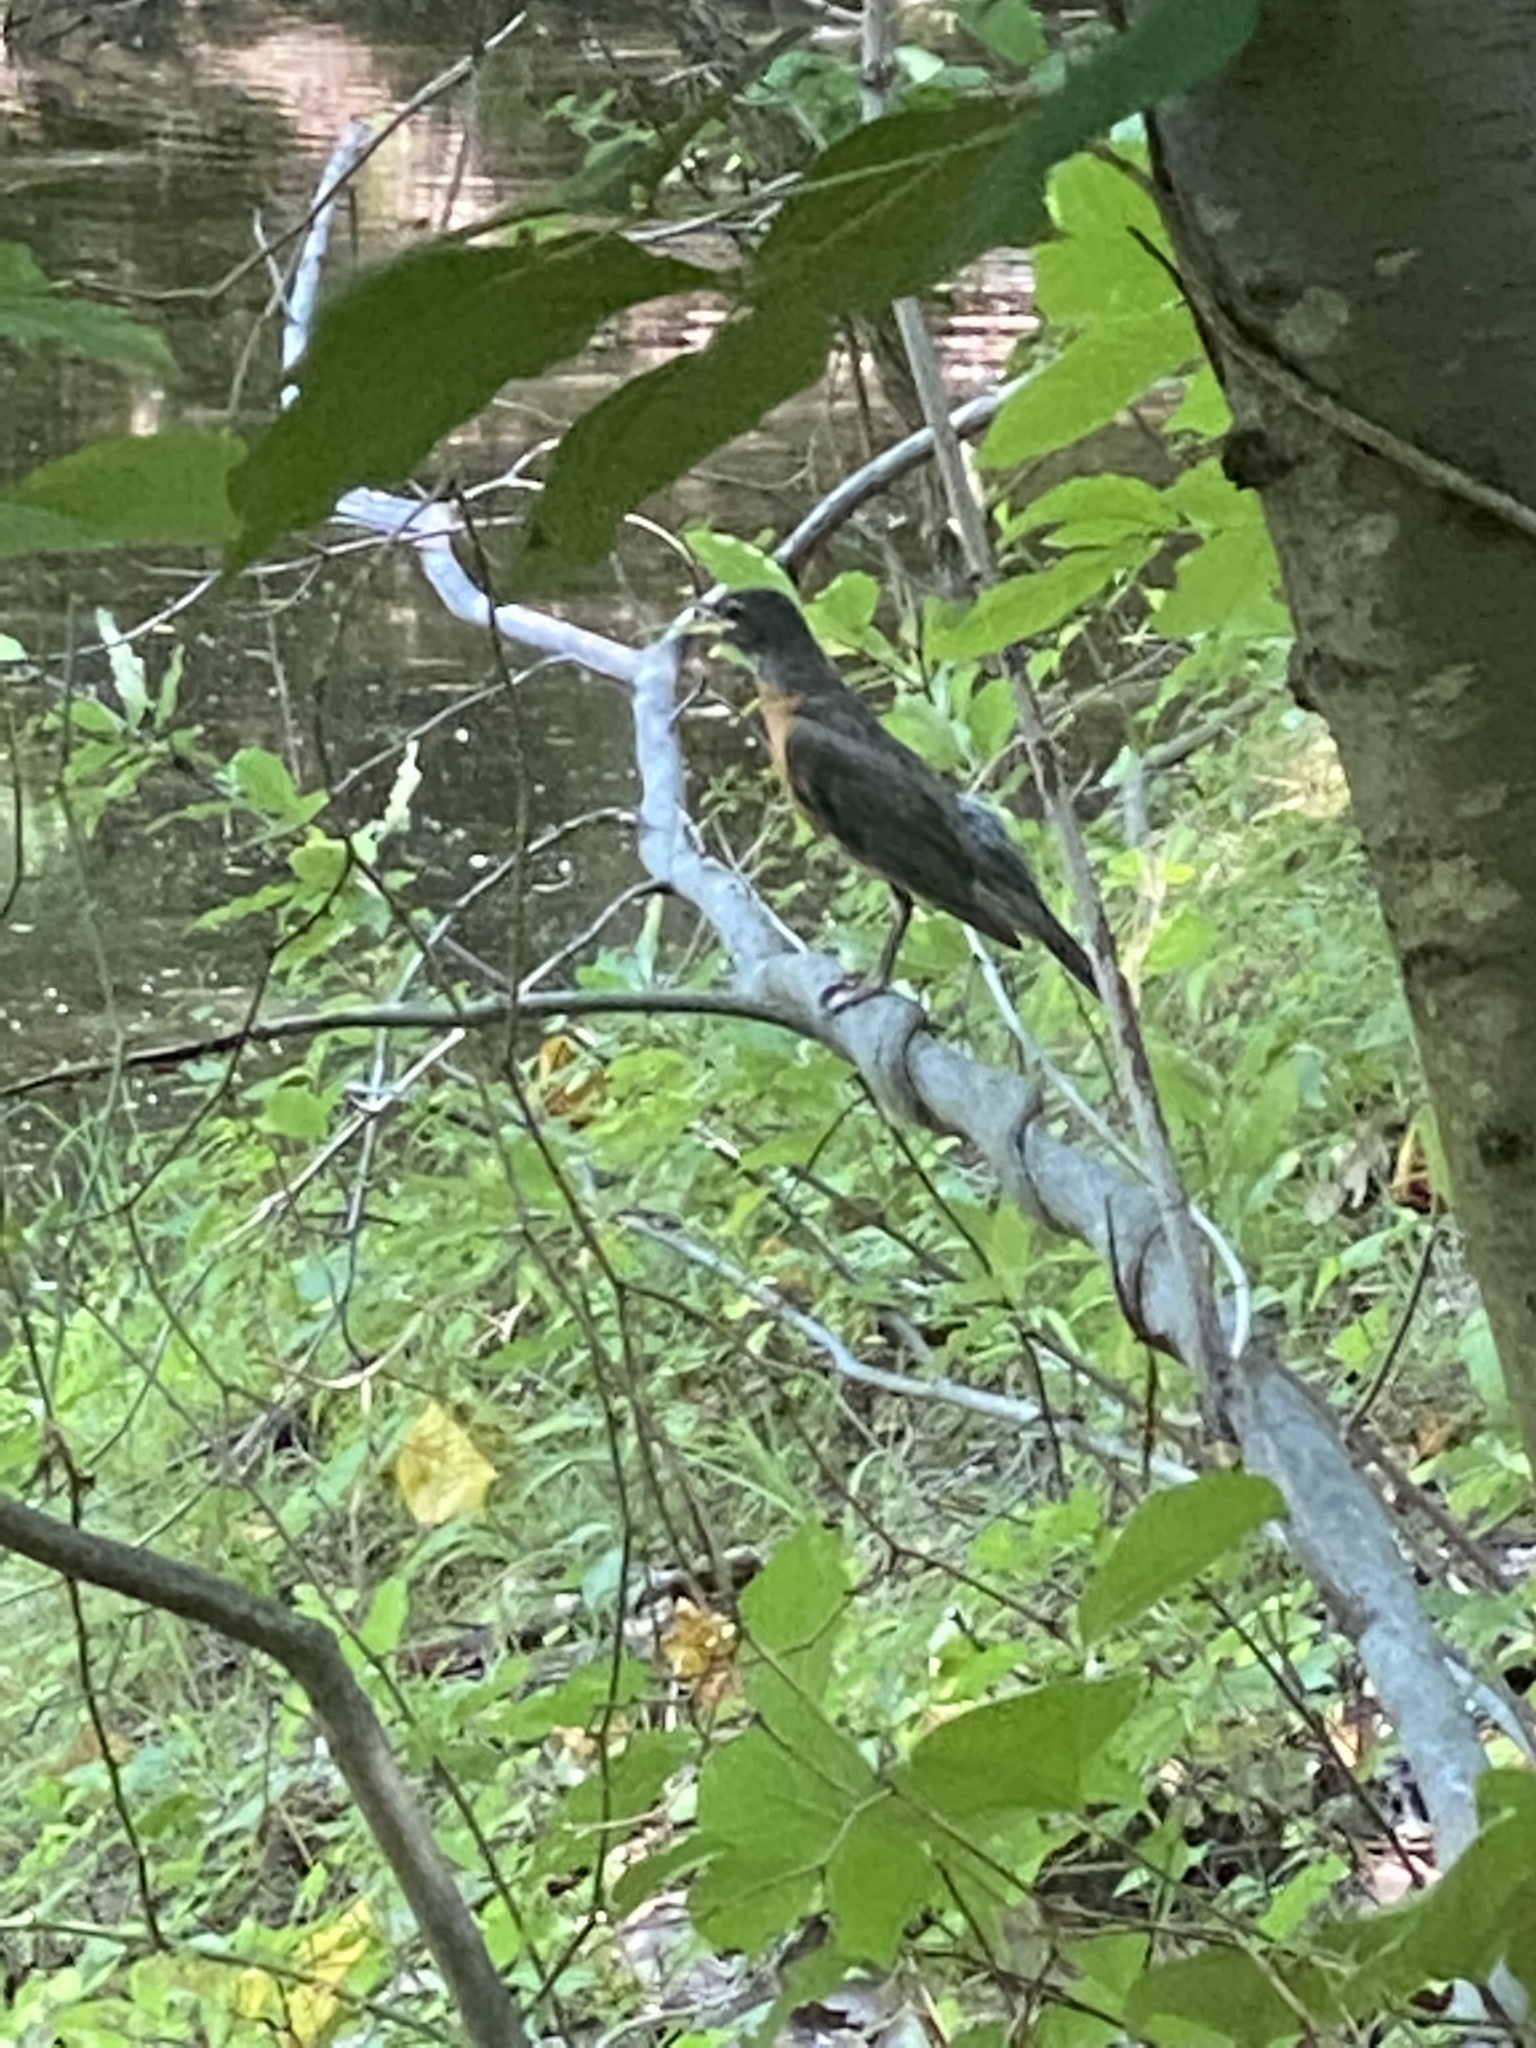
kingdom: Animalia
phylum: Chordata
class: Aves
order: Passeriformes
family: Turdidae
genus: Turdus
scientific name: Turdus migratorius
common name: American robin
